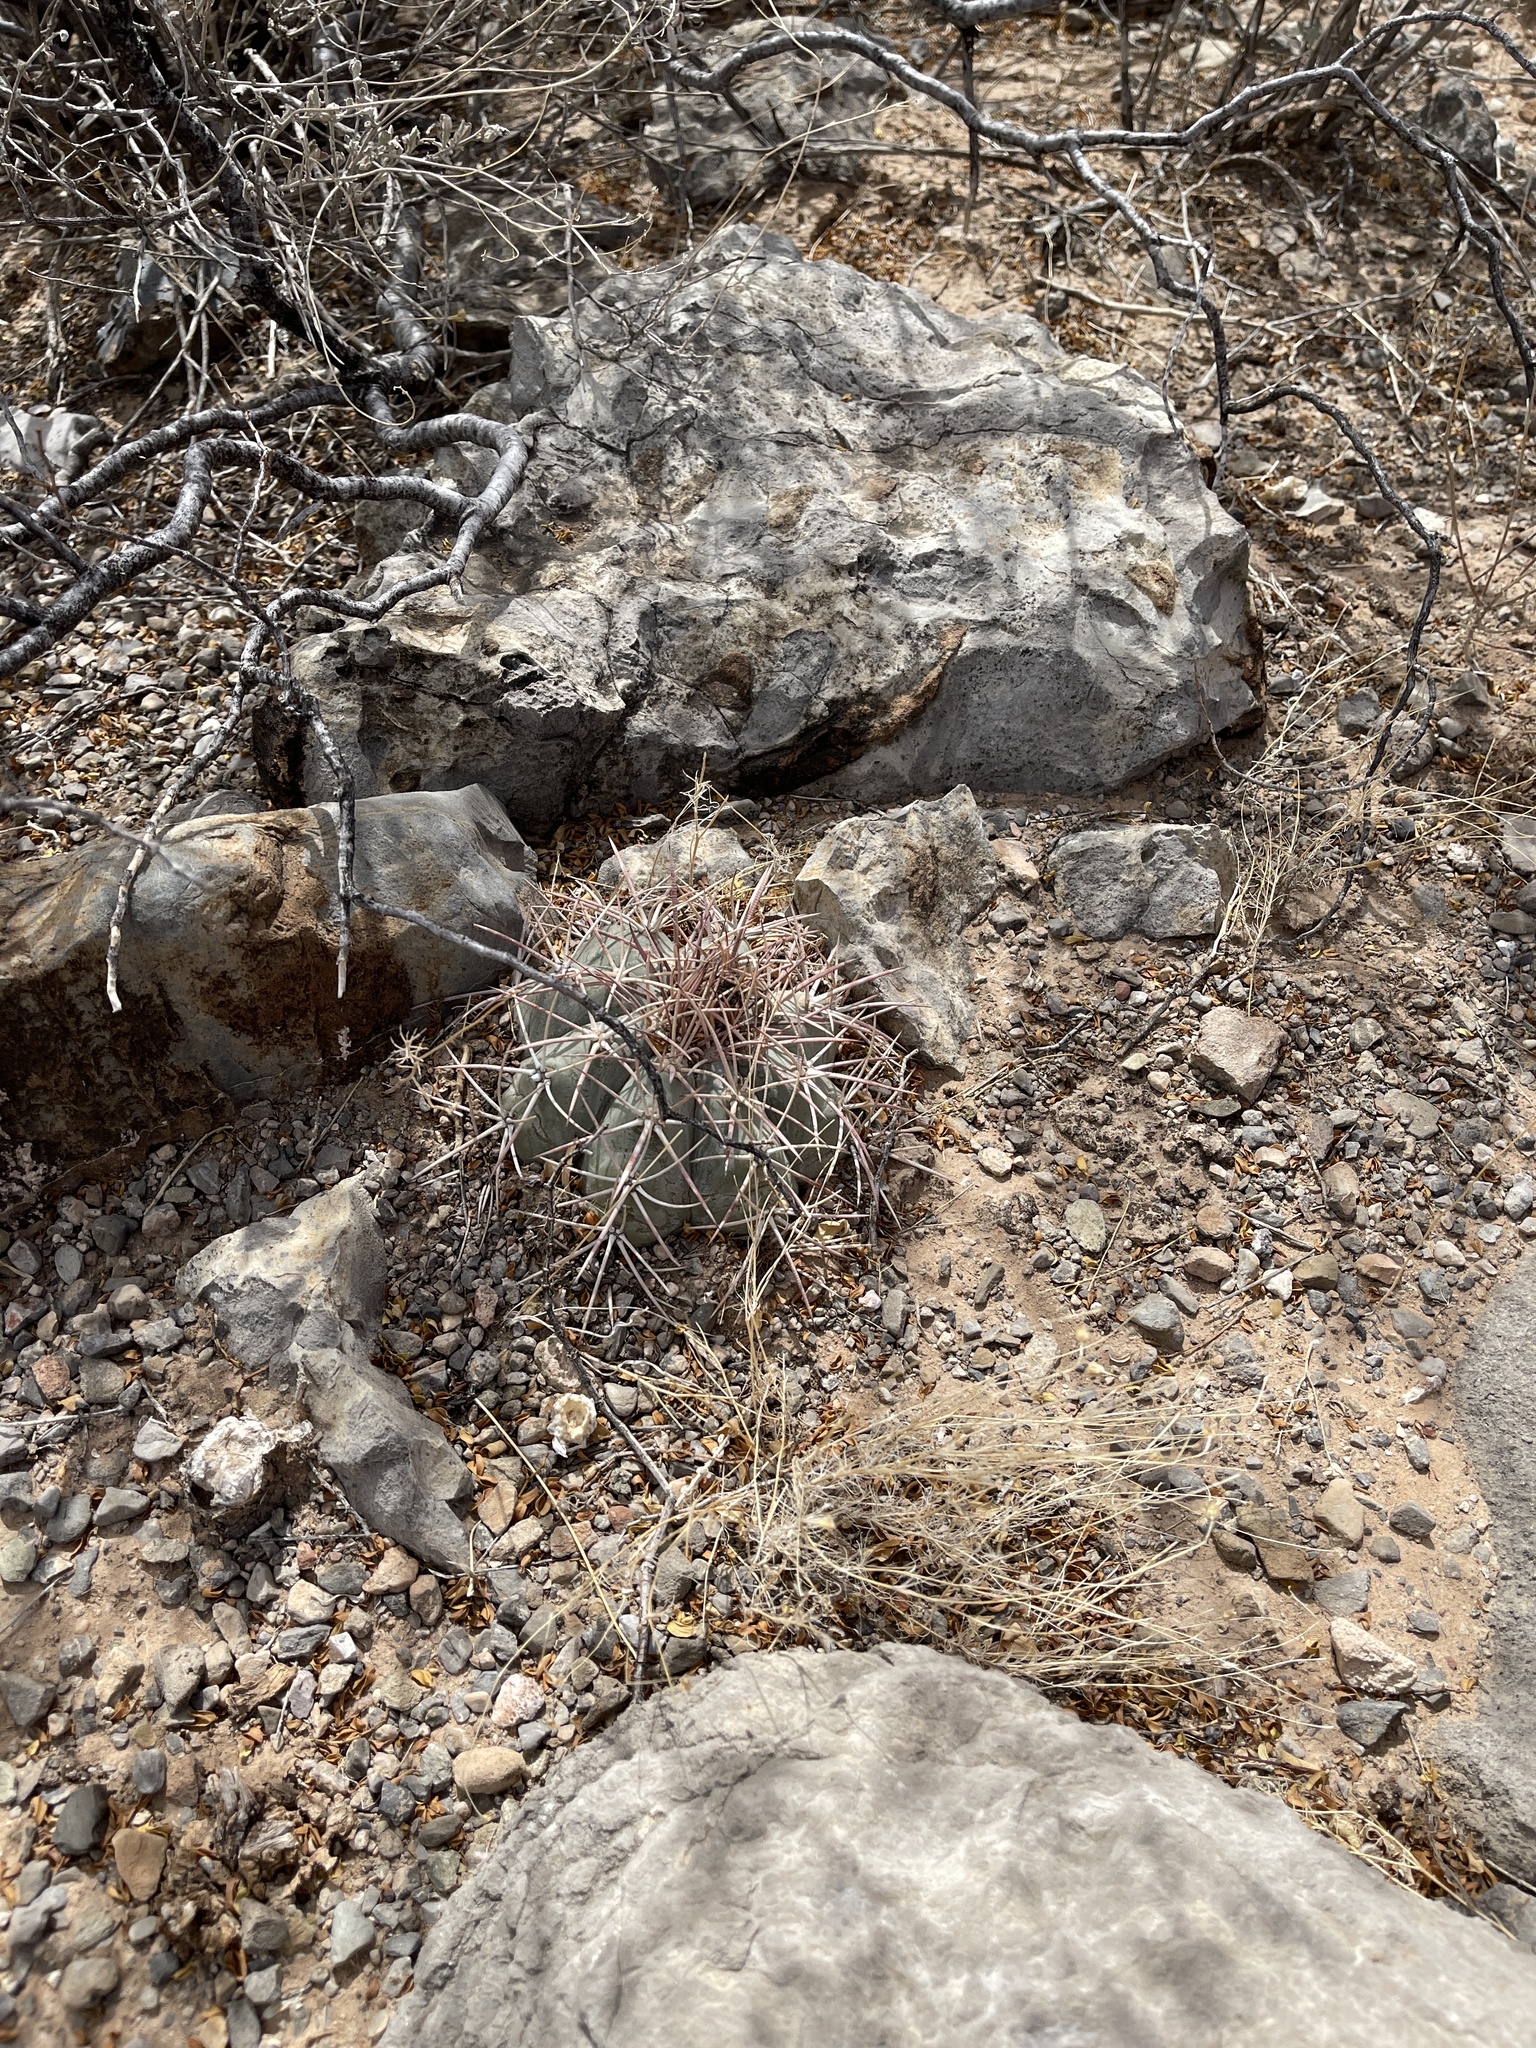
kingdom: Plantae
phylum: Tracheophyta
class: Magnoliopsida
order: Caryophyllales
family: Cactaceae
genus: Echinocactus
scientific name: Echinocactus horizonthalonius
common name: Devilshead
